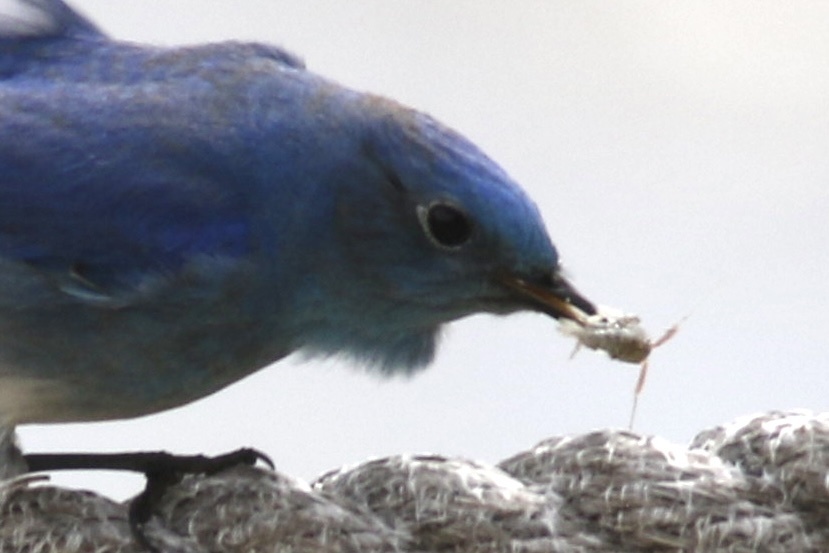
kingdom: Animalia
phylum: Arthropoda
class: Malacostraca
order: Amphipoda
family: Talitridae
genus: Megalorchestia
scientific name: Megalorchestia californiana
